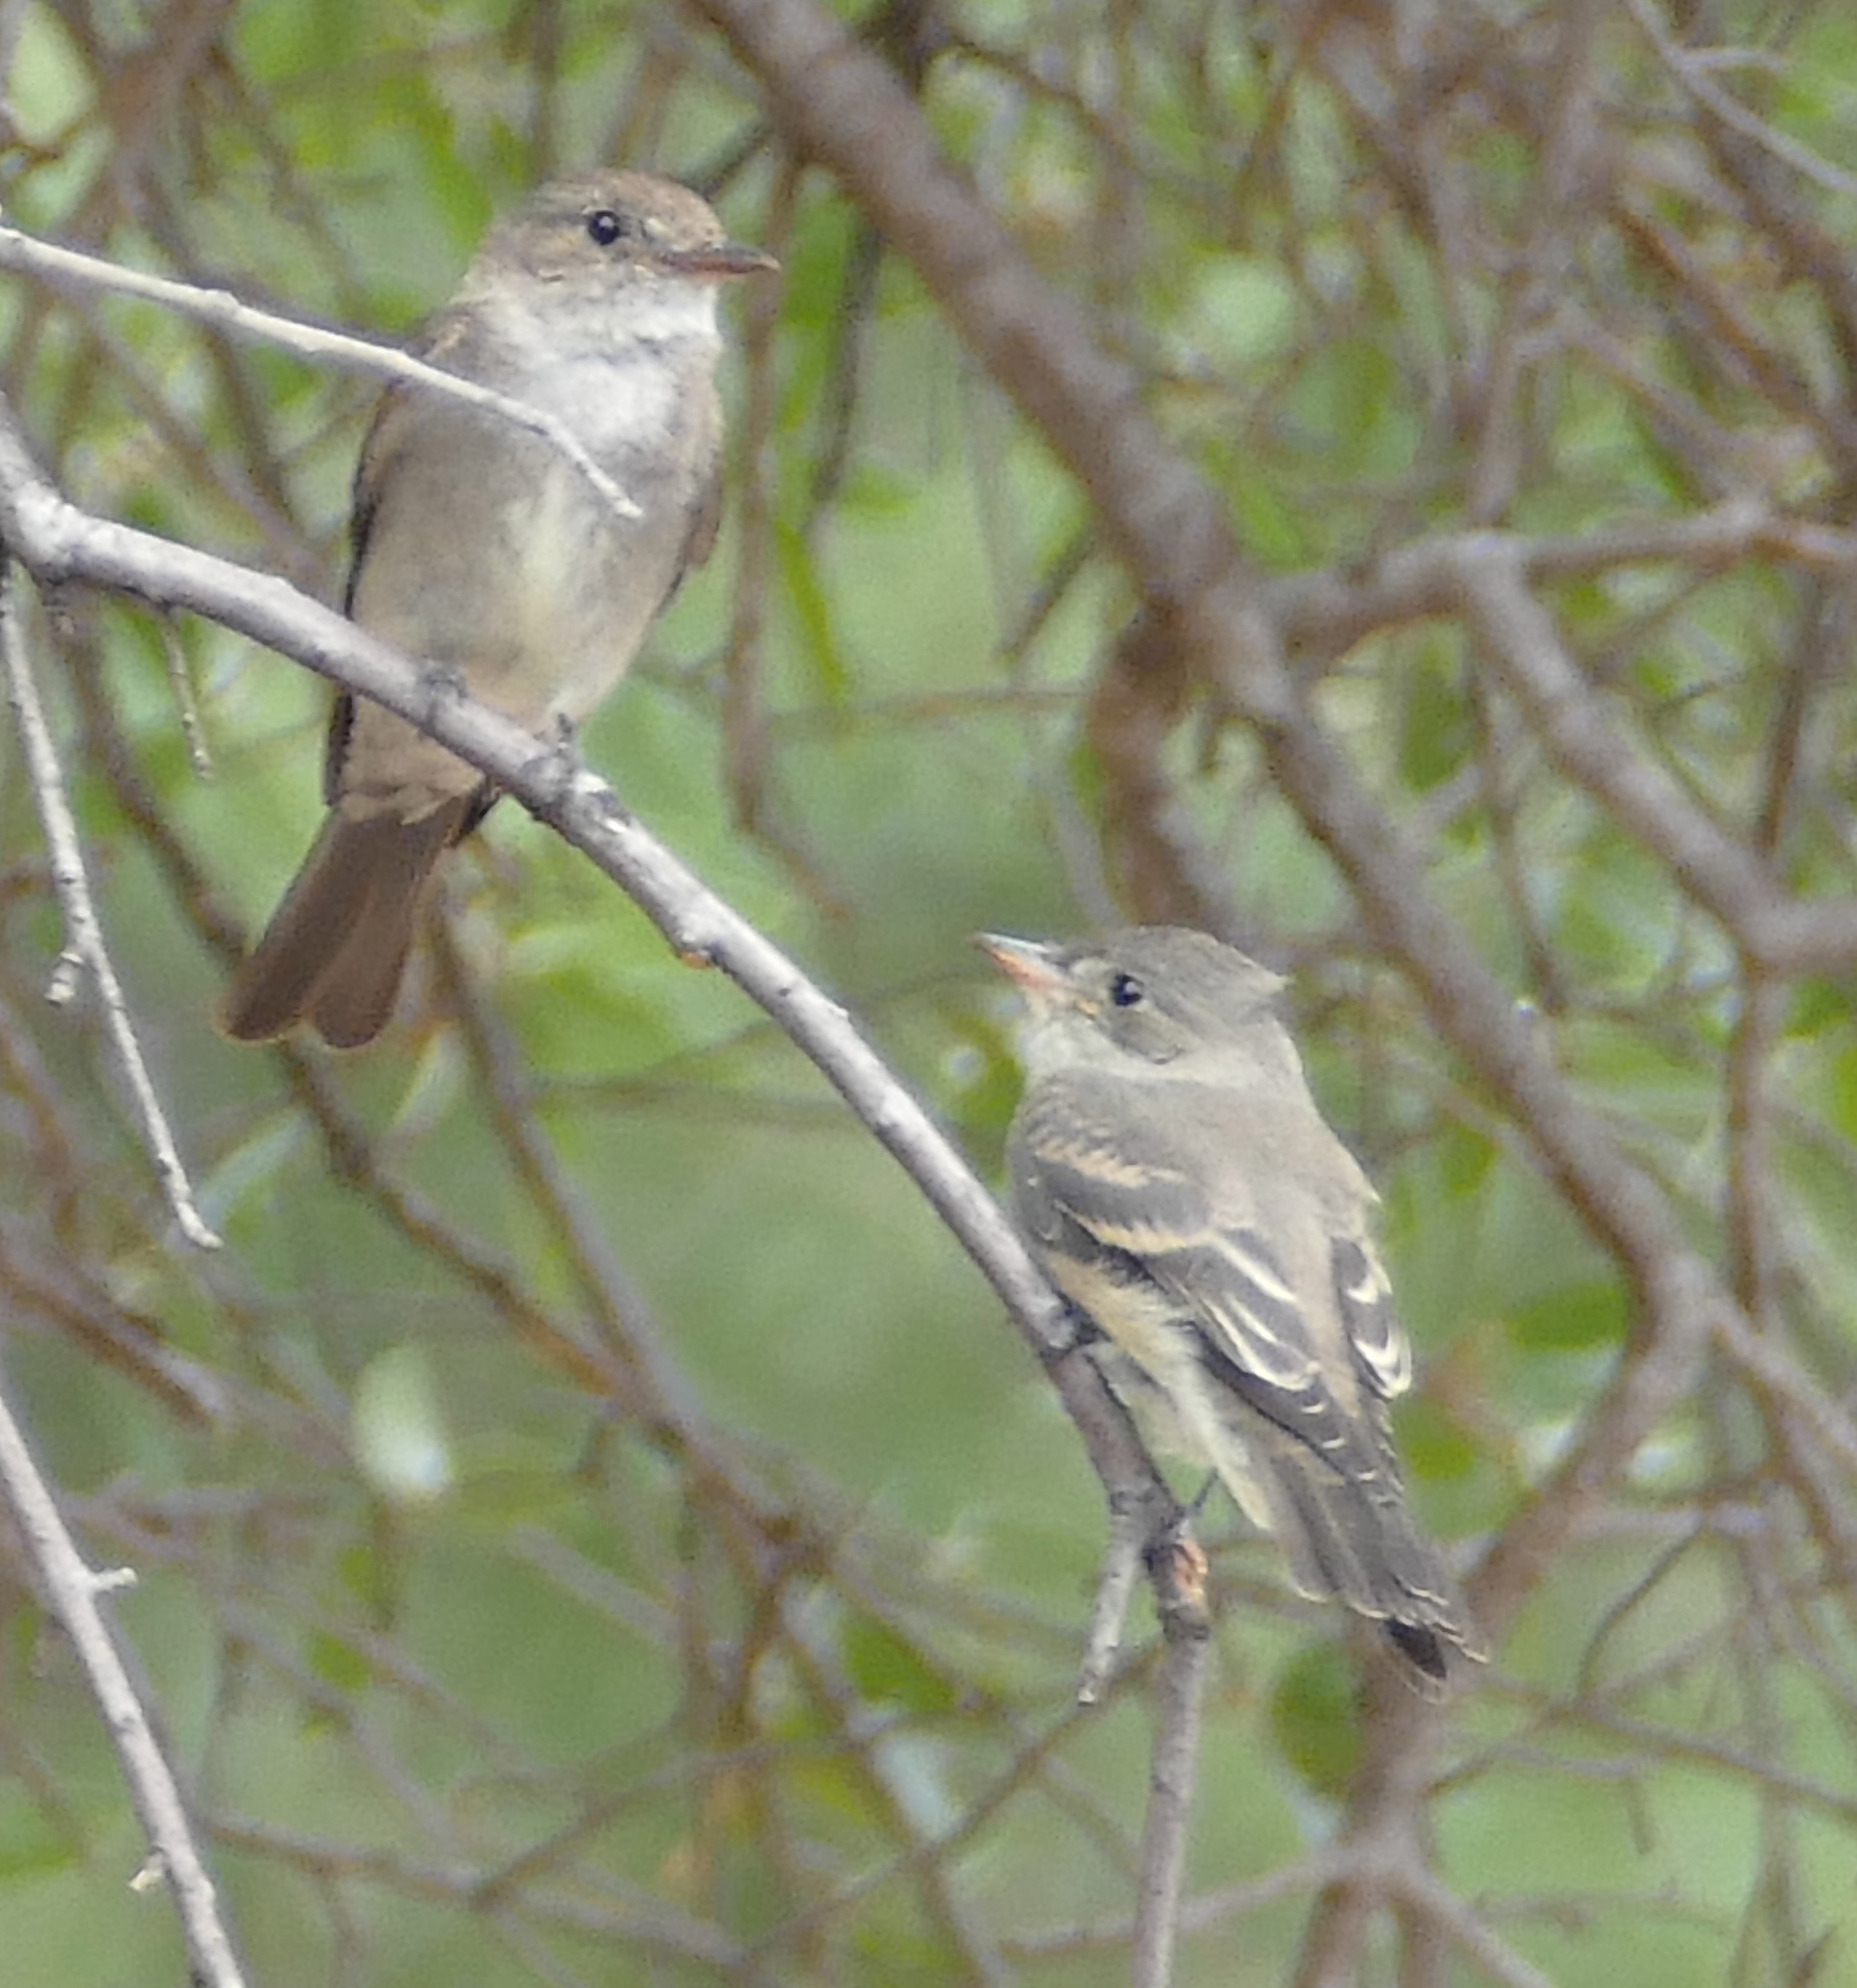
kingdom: Animalia
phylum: Chordata
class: Aves
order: Passeriformes
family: Tyrannidae
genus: Contopus
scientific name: Contopus sordidulus
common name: Western wood-pewee
